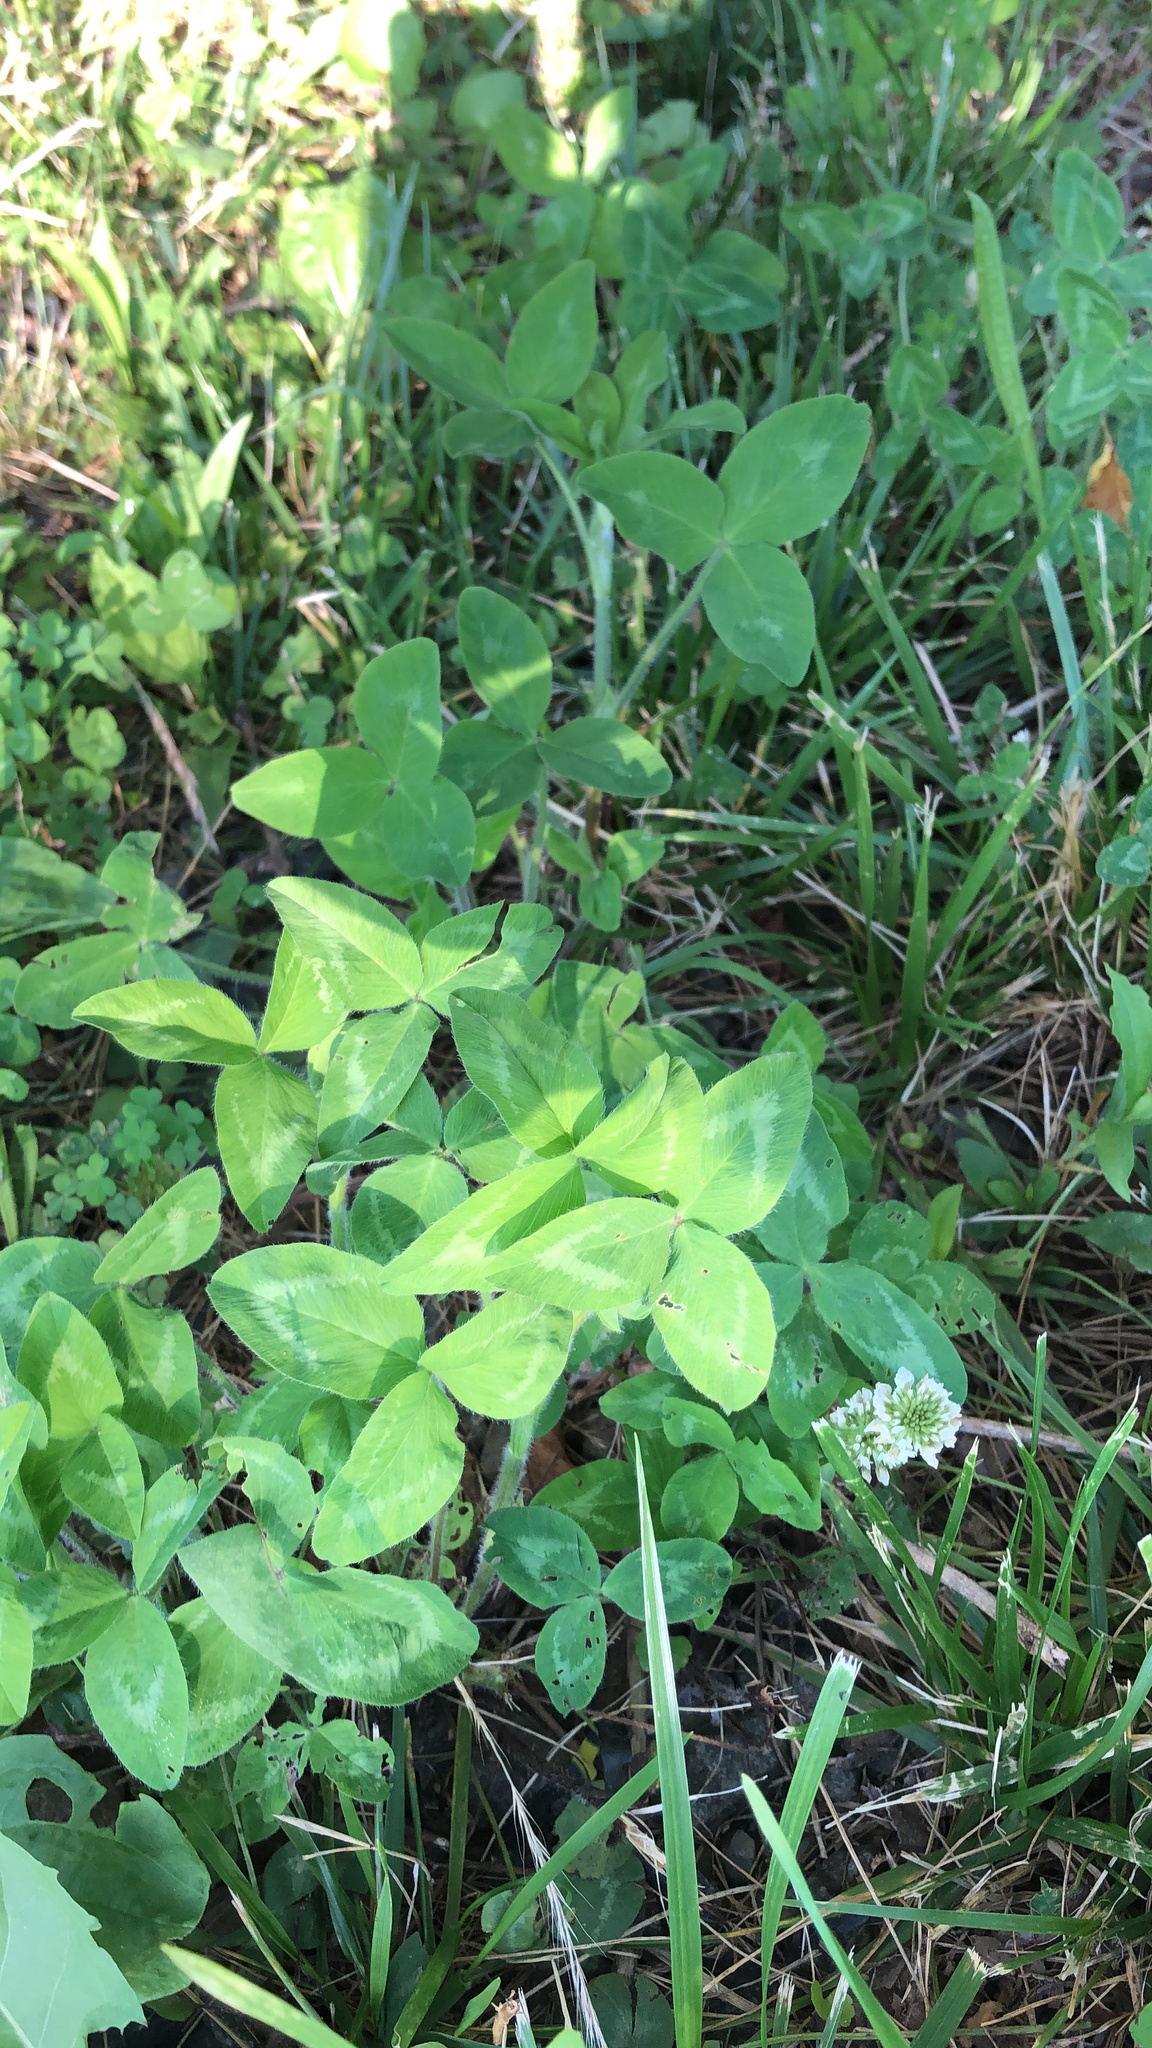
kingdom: Plantae
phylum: Tracheophyta
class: Magnoliopsida
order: Fabales
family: Fabaceae
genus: Trifolium
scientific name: Trifolium pratense
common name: Red clover
